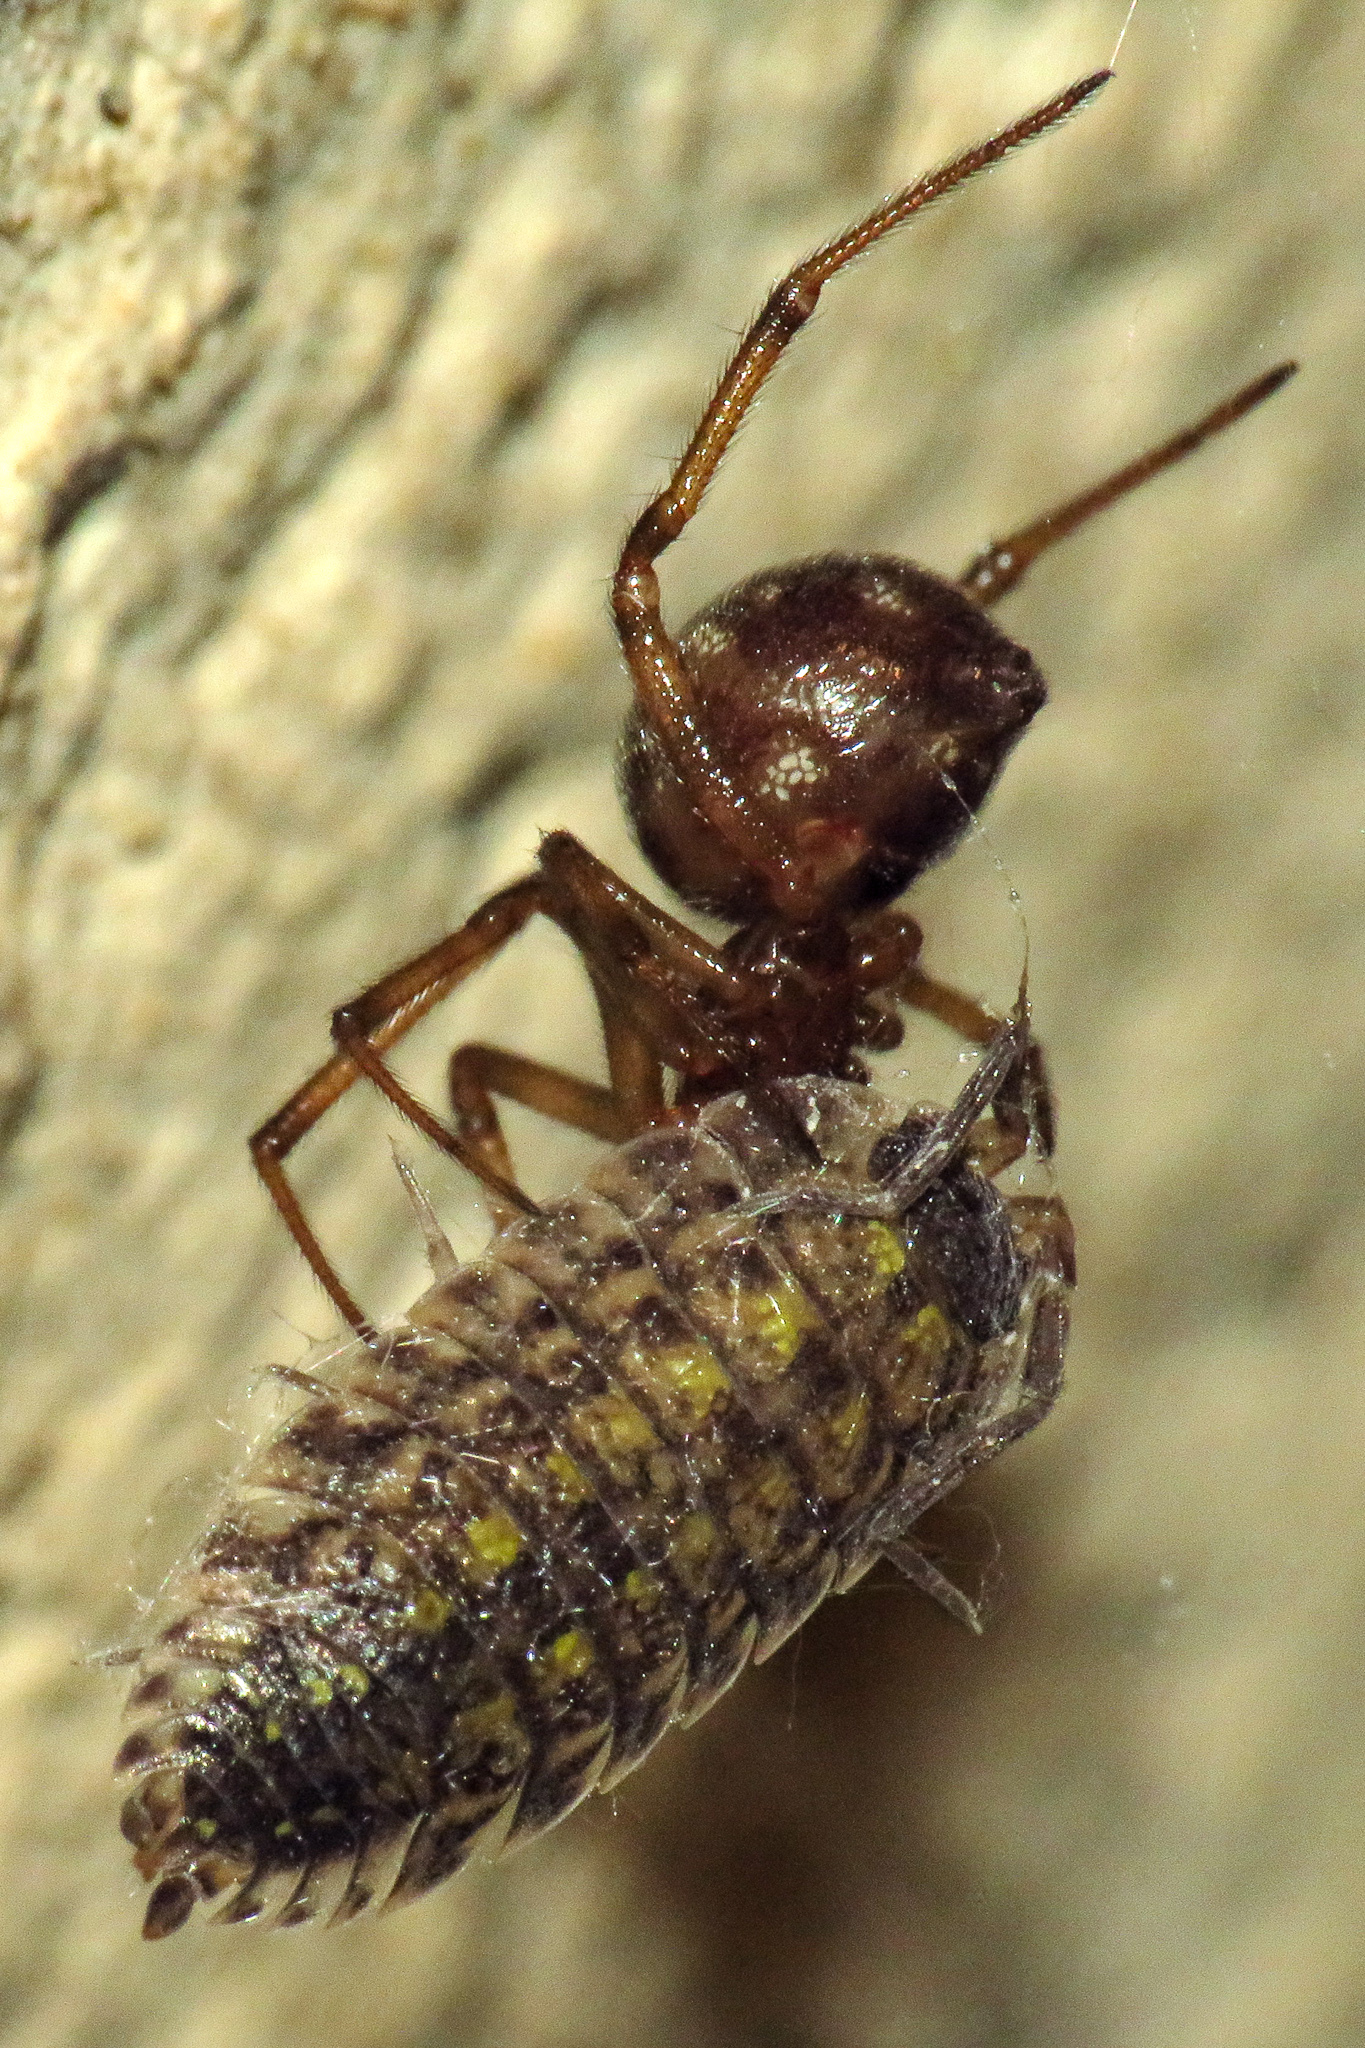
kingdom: Animalia
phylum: Arthropoda
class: Arachnida
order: Araneae
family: Theridiidae
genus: Steatoda
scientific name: Steatoda triangulosa
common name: Triangulate bud spider
